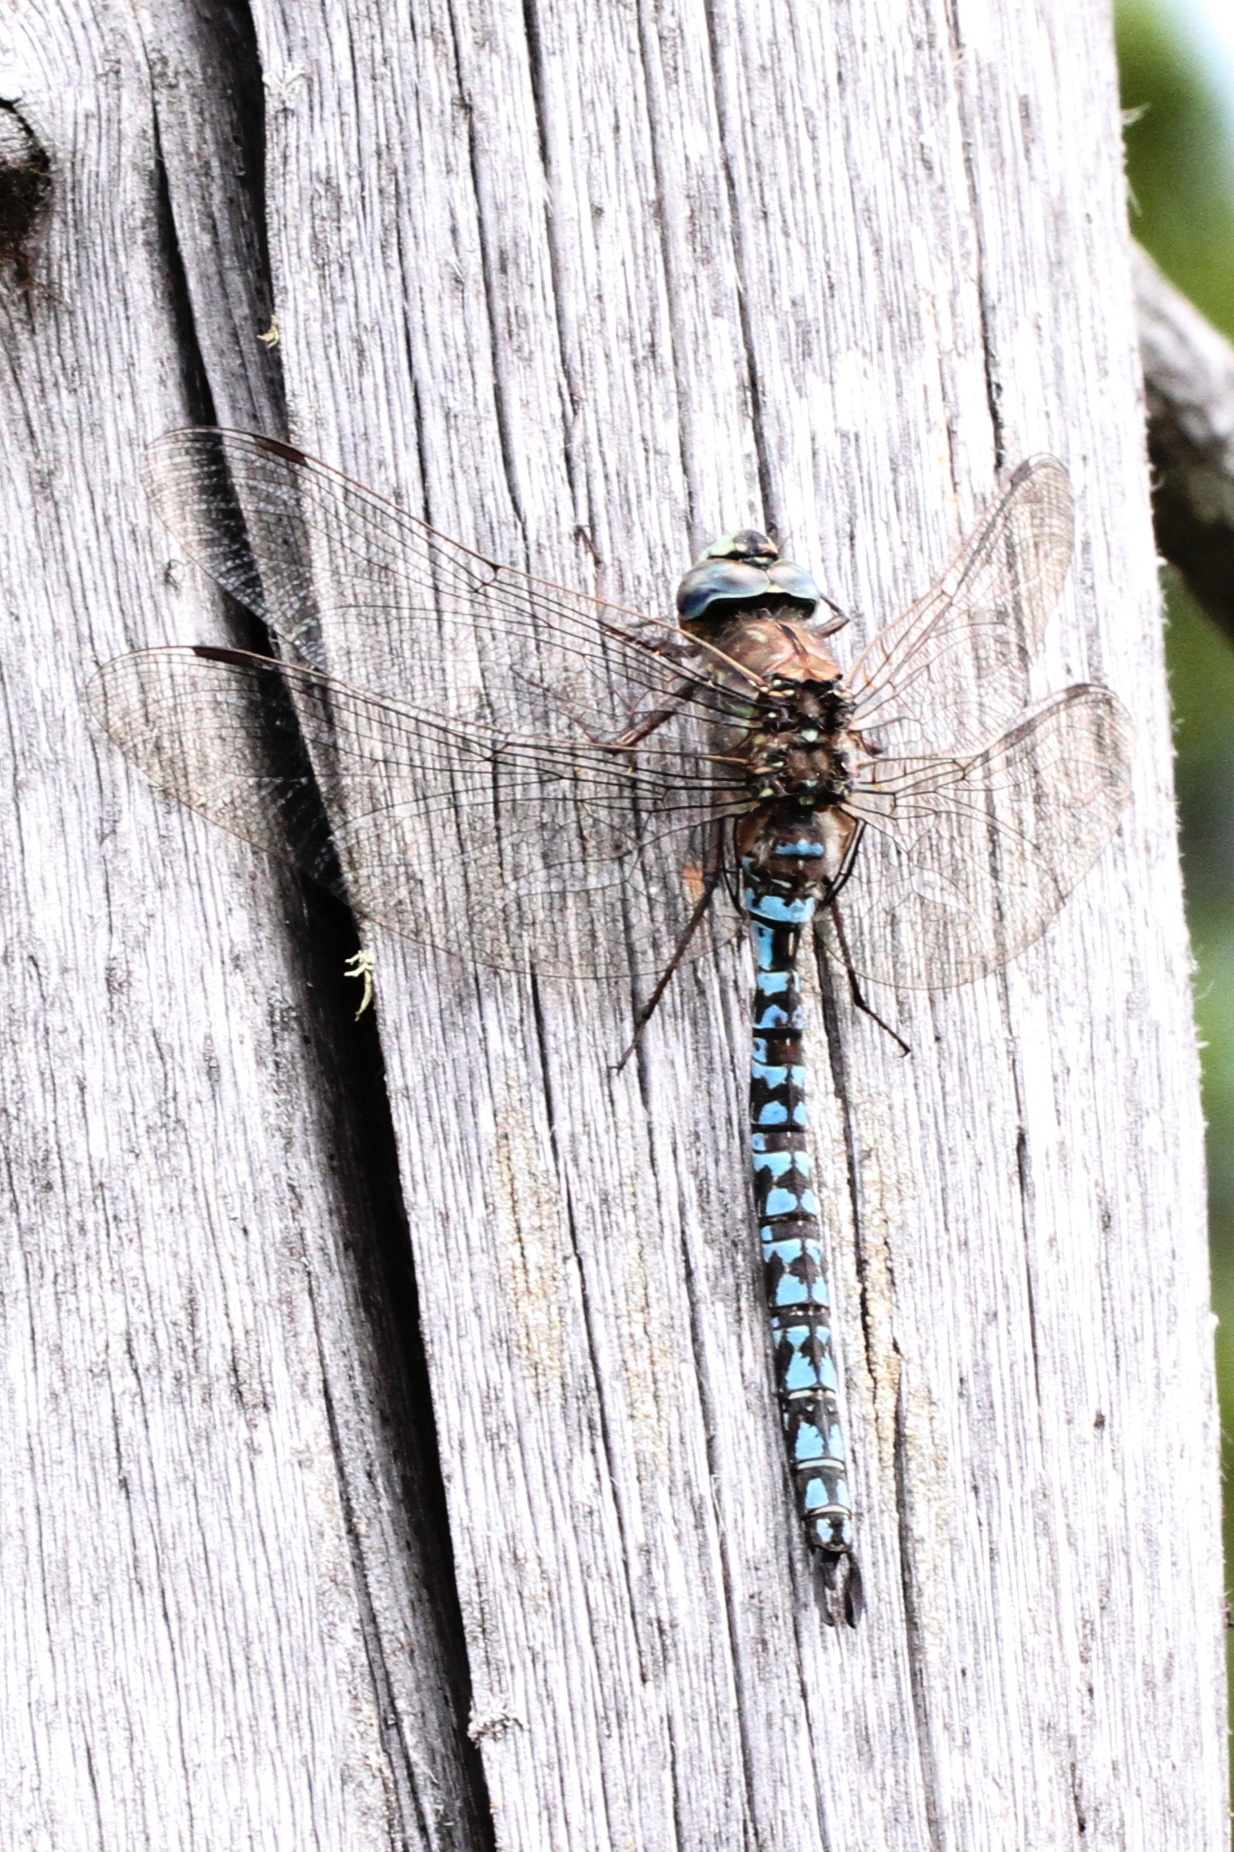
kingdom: Animalia
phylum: Arthropoda
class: Insecta
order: Odonata
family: Aeshnidae
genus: Aeshna
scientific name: Aeshna septentrionalis
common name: Azure darner
